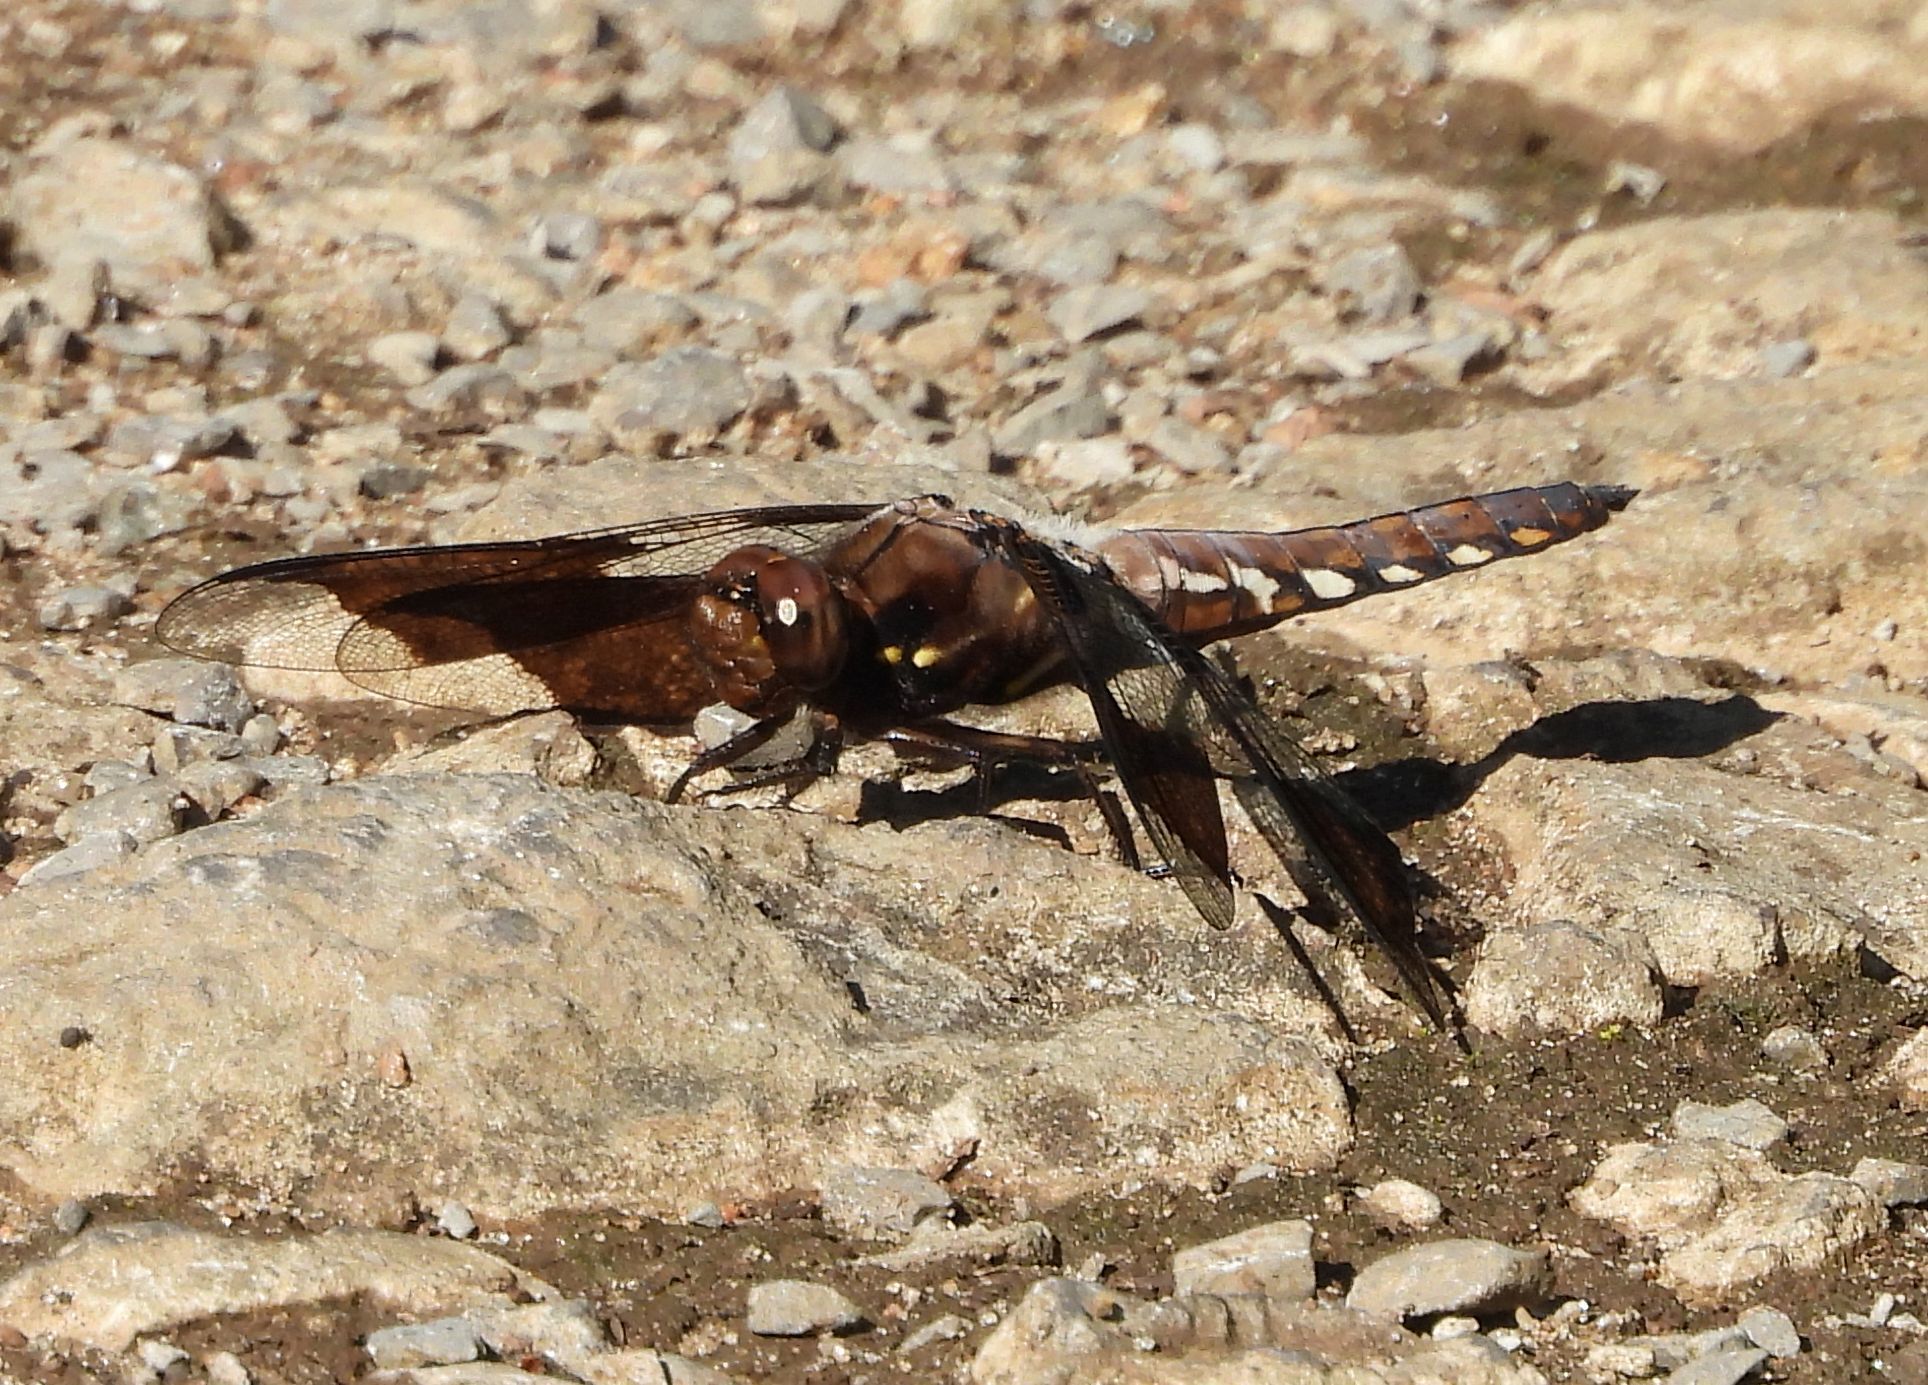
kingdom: Animalia
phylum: Arthropoda
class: Insecta
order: Odonata
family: Libellulidae
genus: Plathemis
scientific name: Plathemis lydia
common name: Common whitetail
